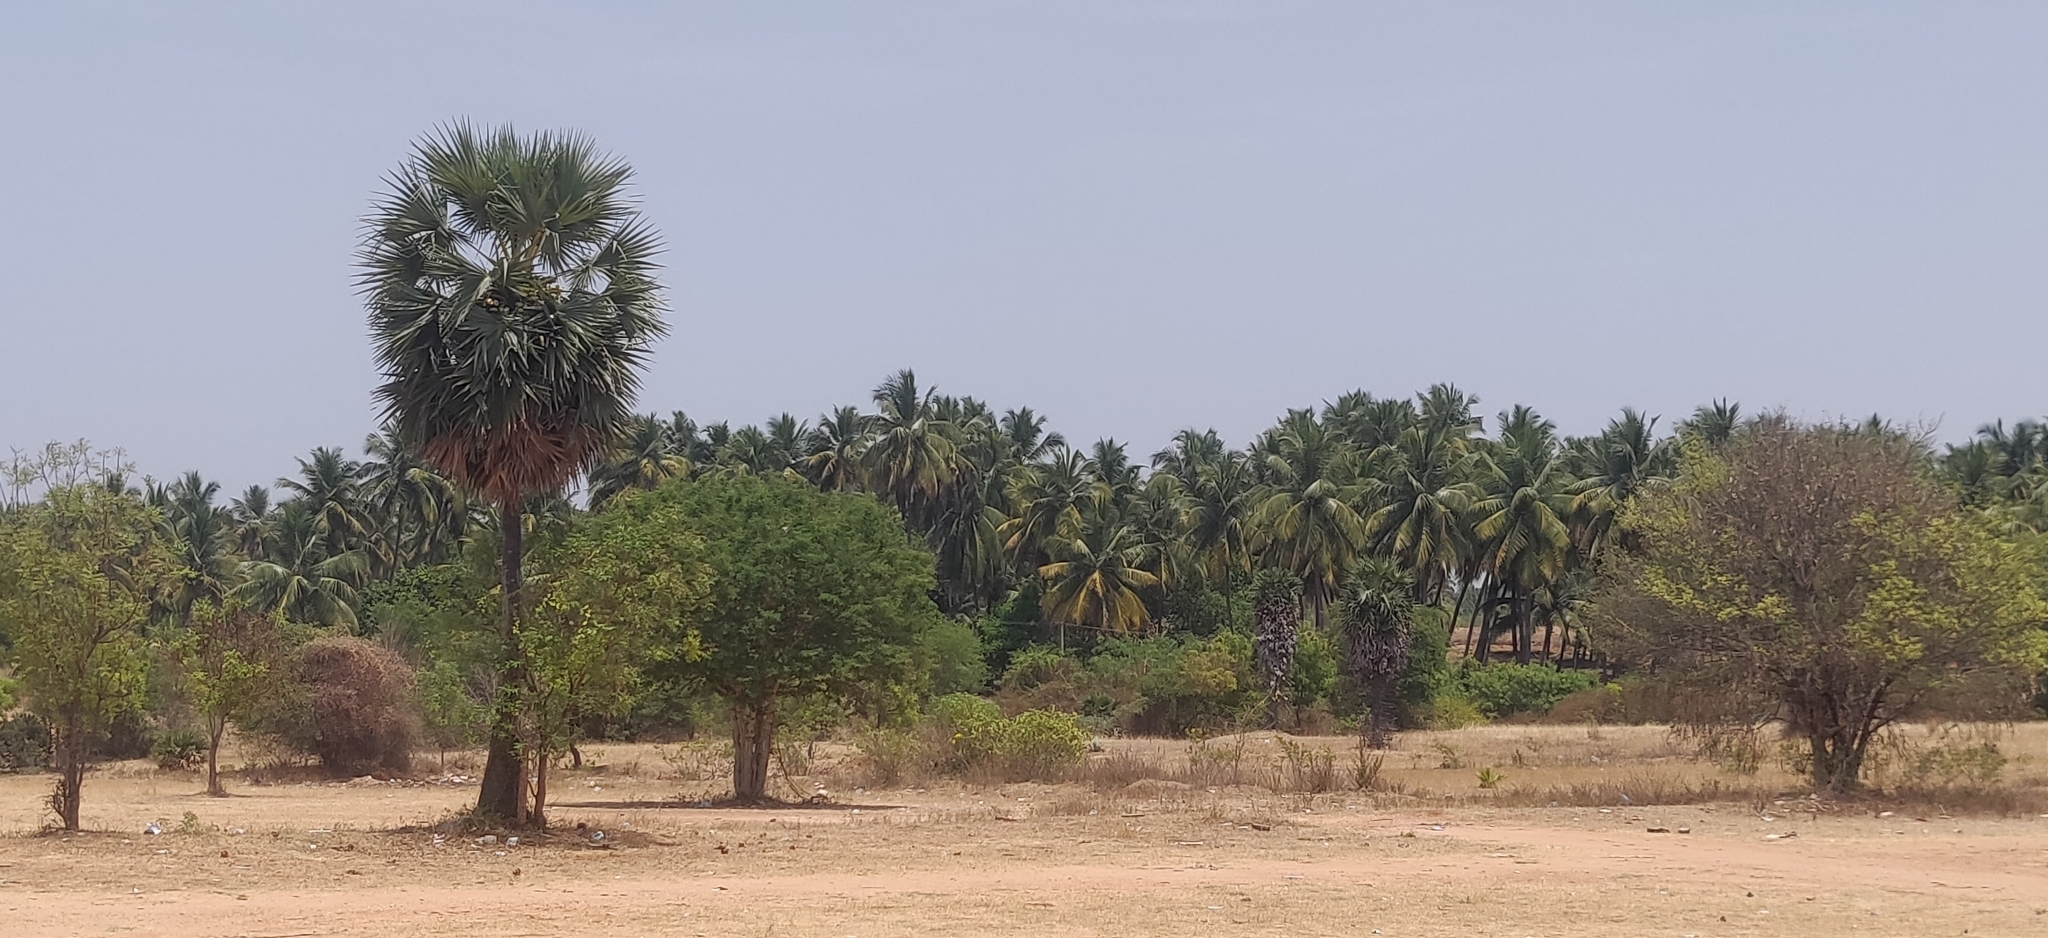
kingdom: Plantae
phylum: Tracheophyta
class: Liliopsida
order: Arecales
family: Arecaceae
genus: Borassus
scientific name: Borassus flabellifer
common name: Palmyra palm
